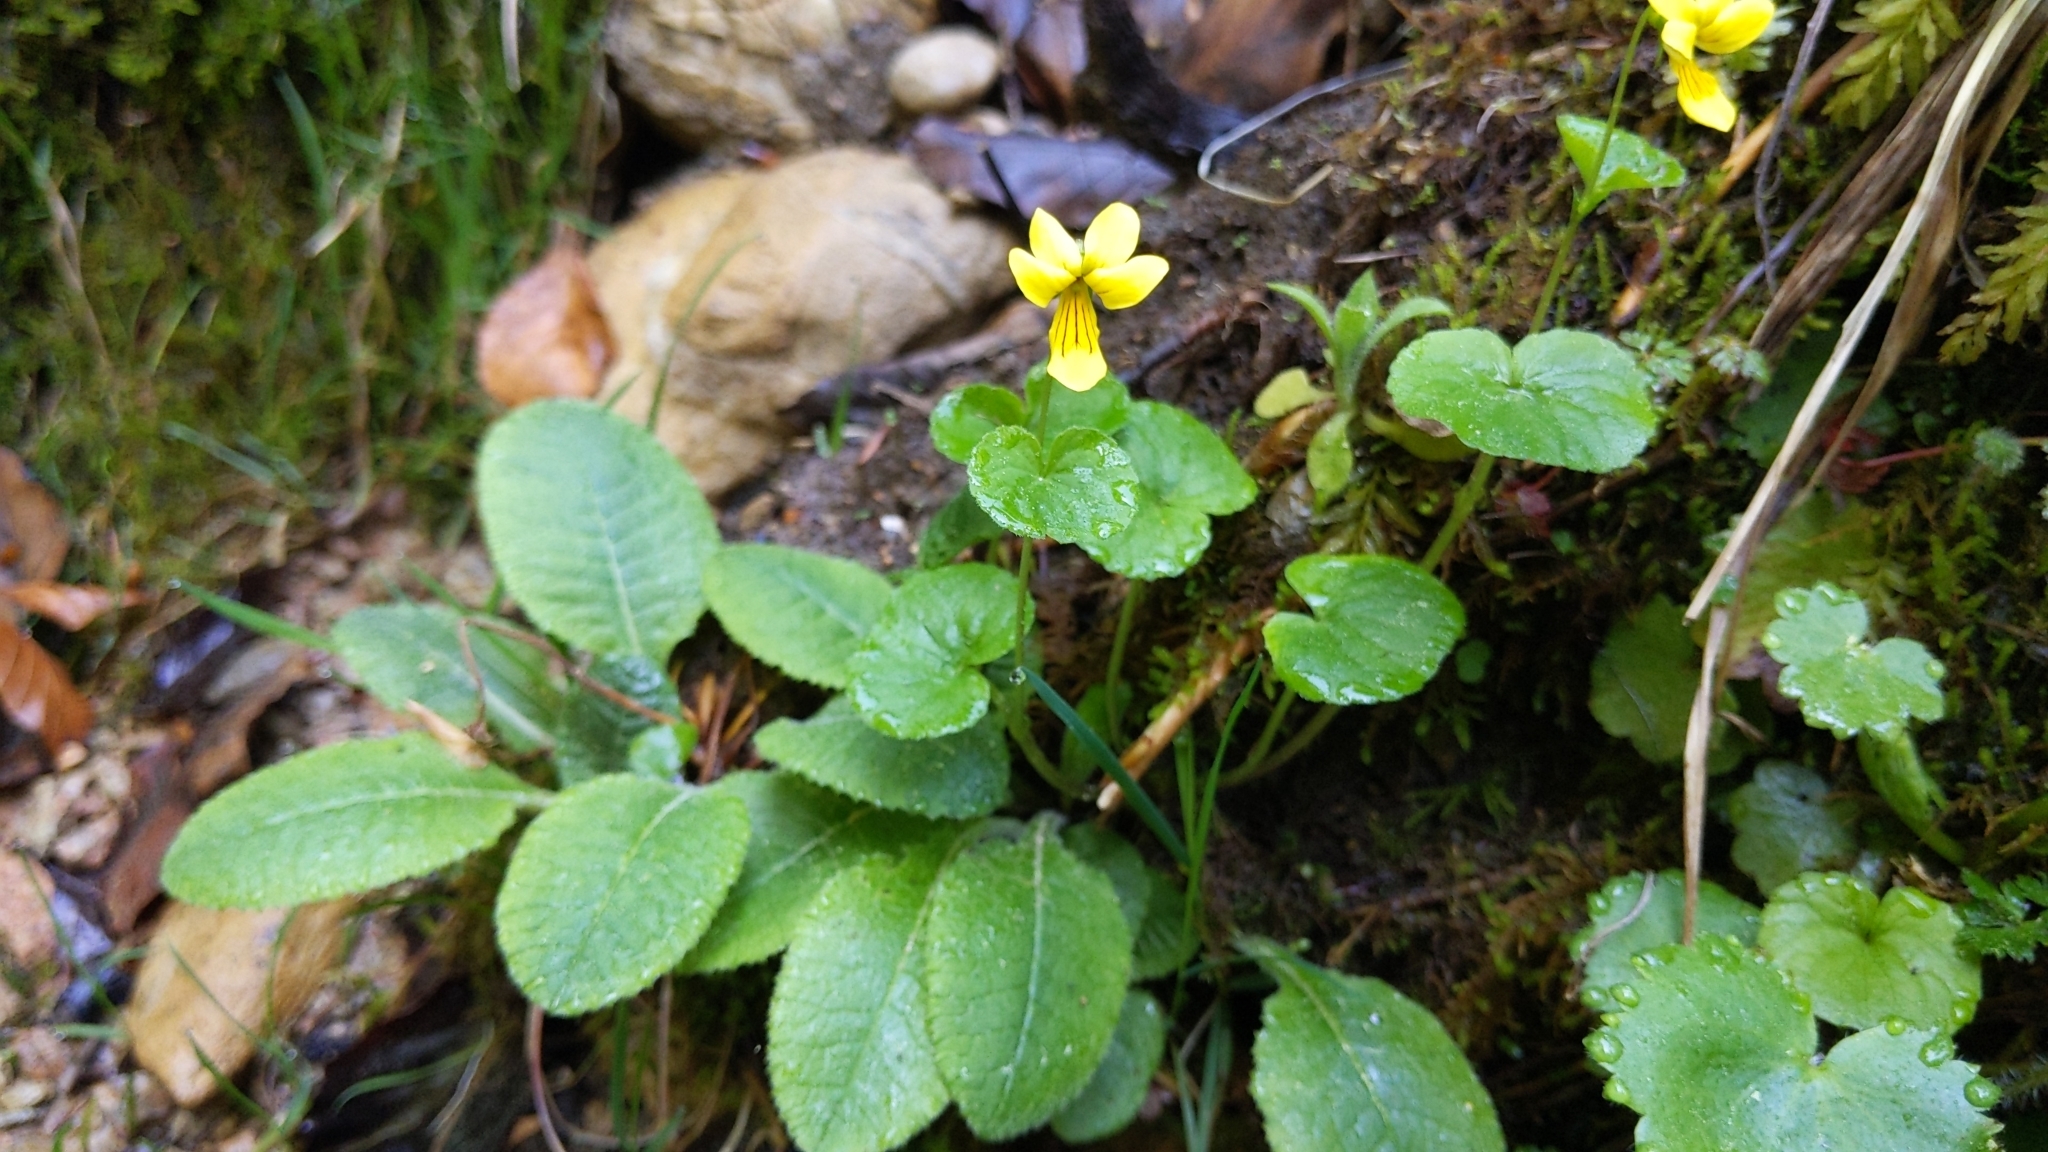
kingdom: Plantae
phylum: Tracheophyta
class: Magnoliopsida
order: Malpighiales
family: Violaceae
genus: Viola
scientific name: Viola biflora
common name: Alpine yellow violet
